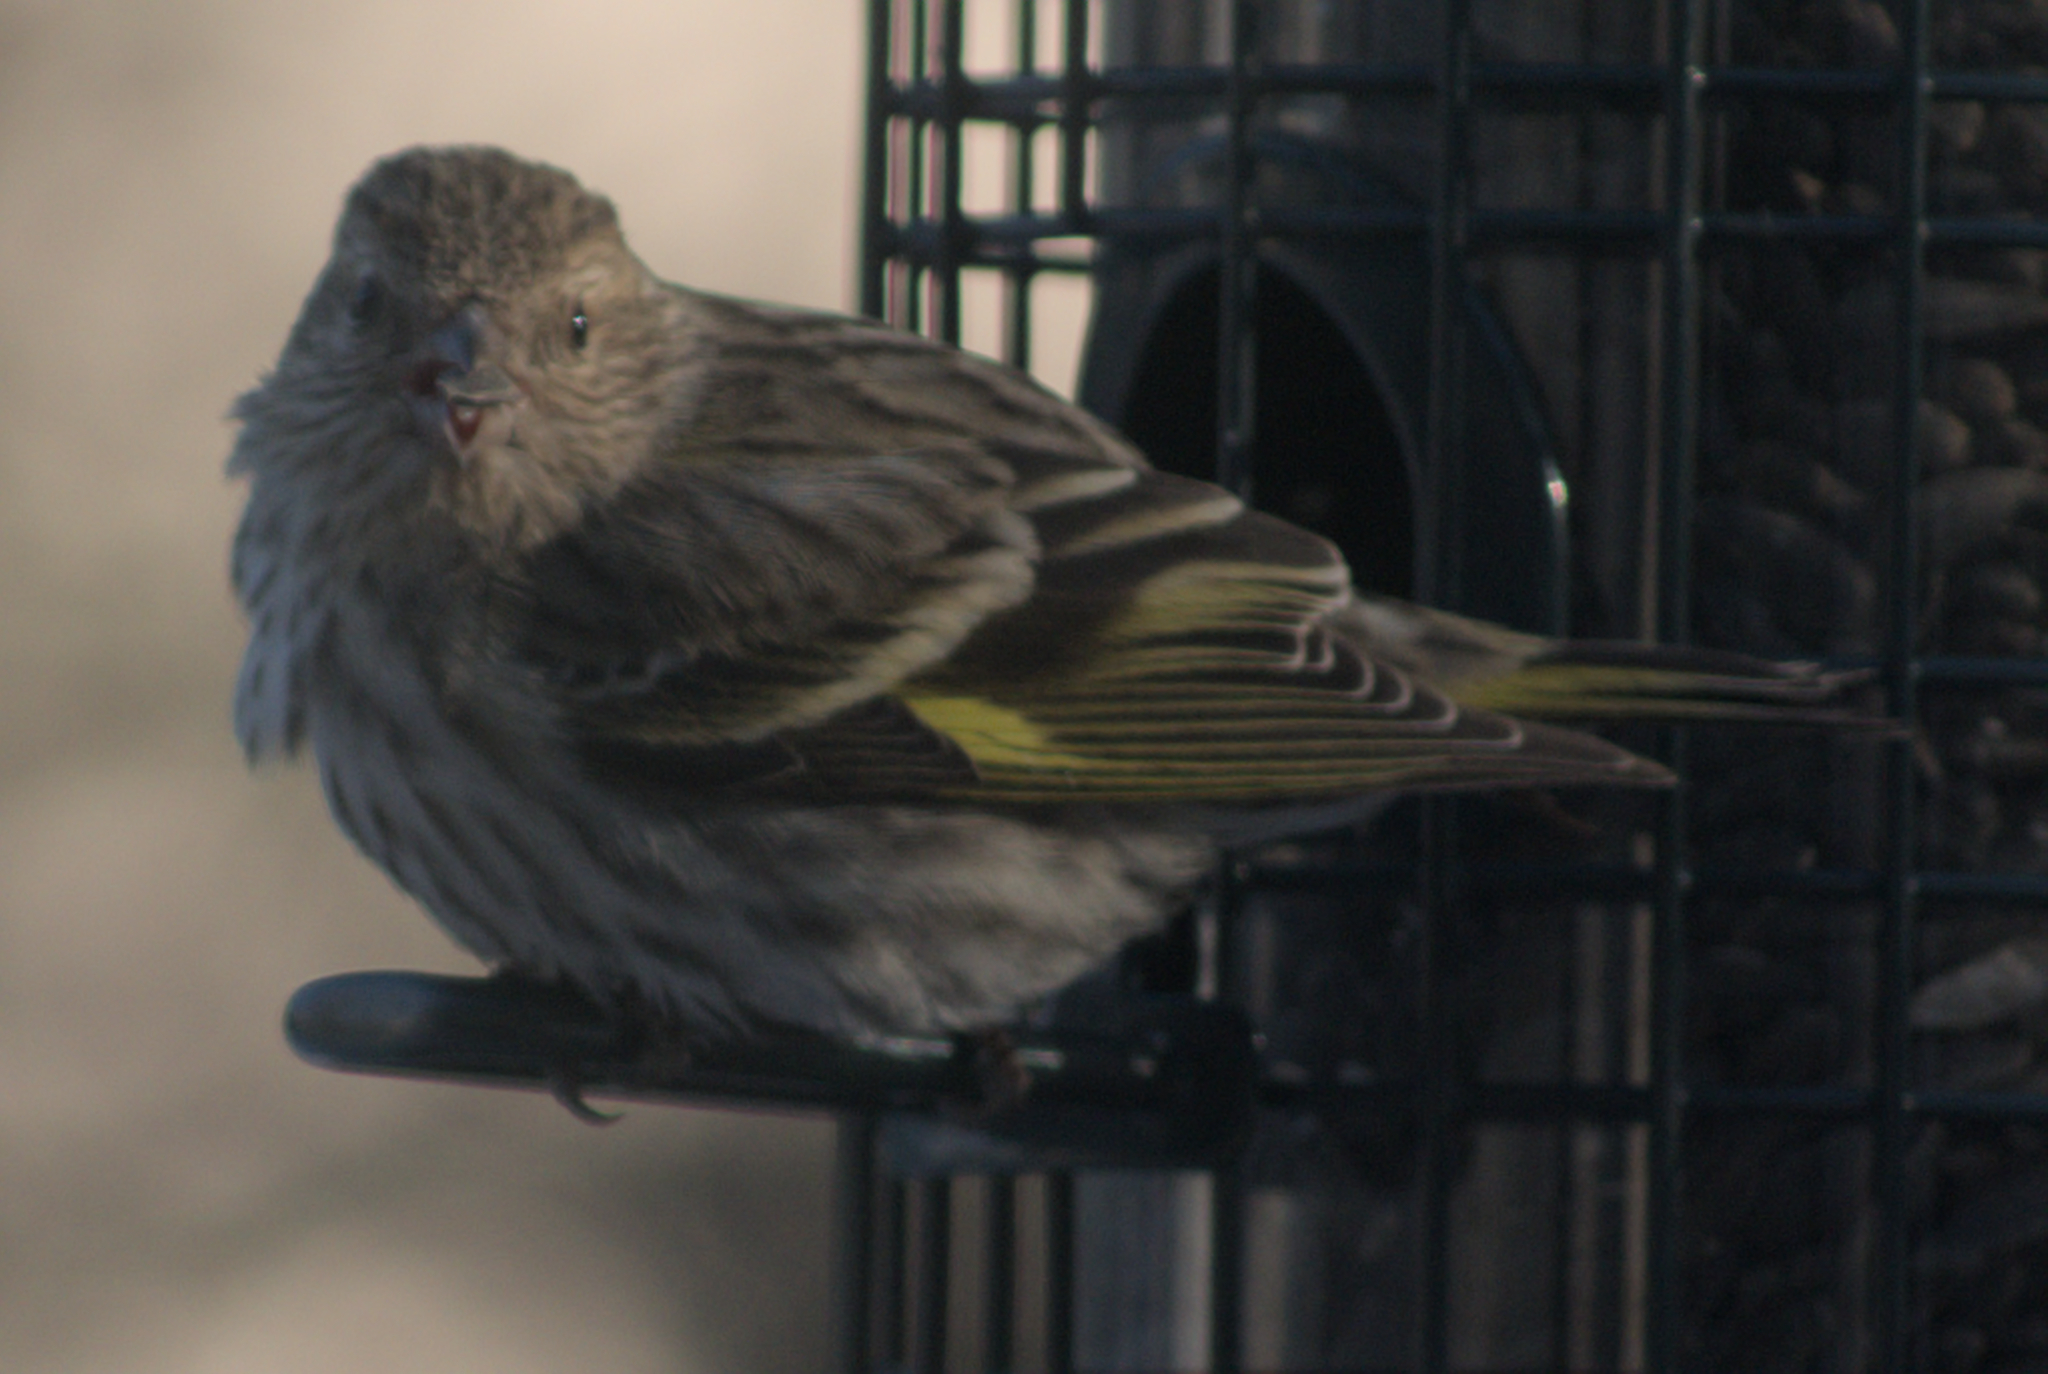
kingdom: Animalia
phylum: Chordata
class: Aves
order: Passeriformes
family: Fringillidae
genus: Spinus
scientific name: Spinus pinus
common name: Pine siskin
